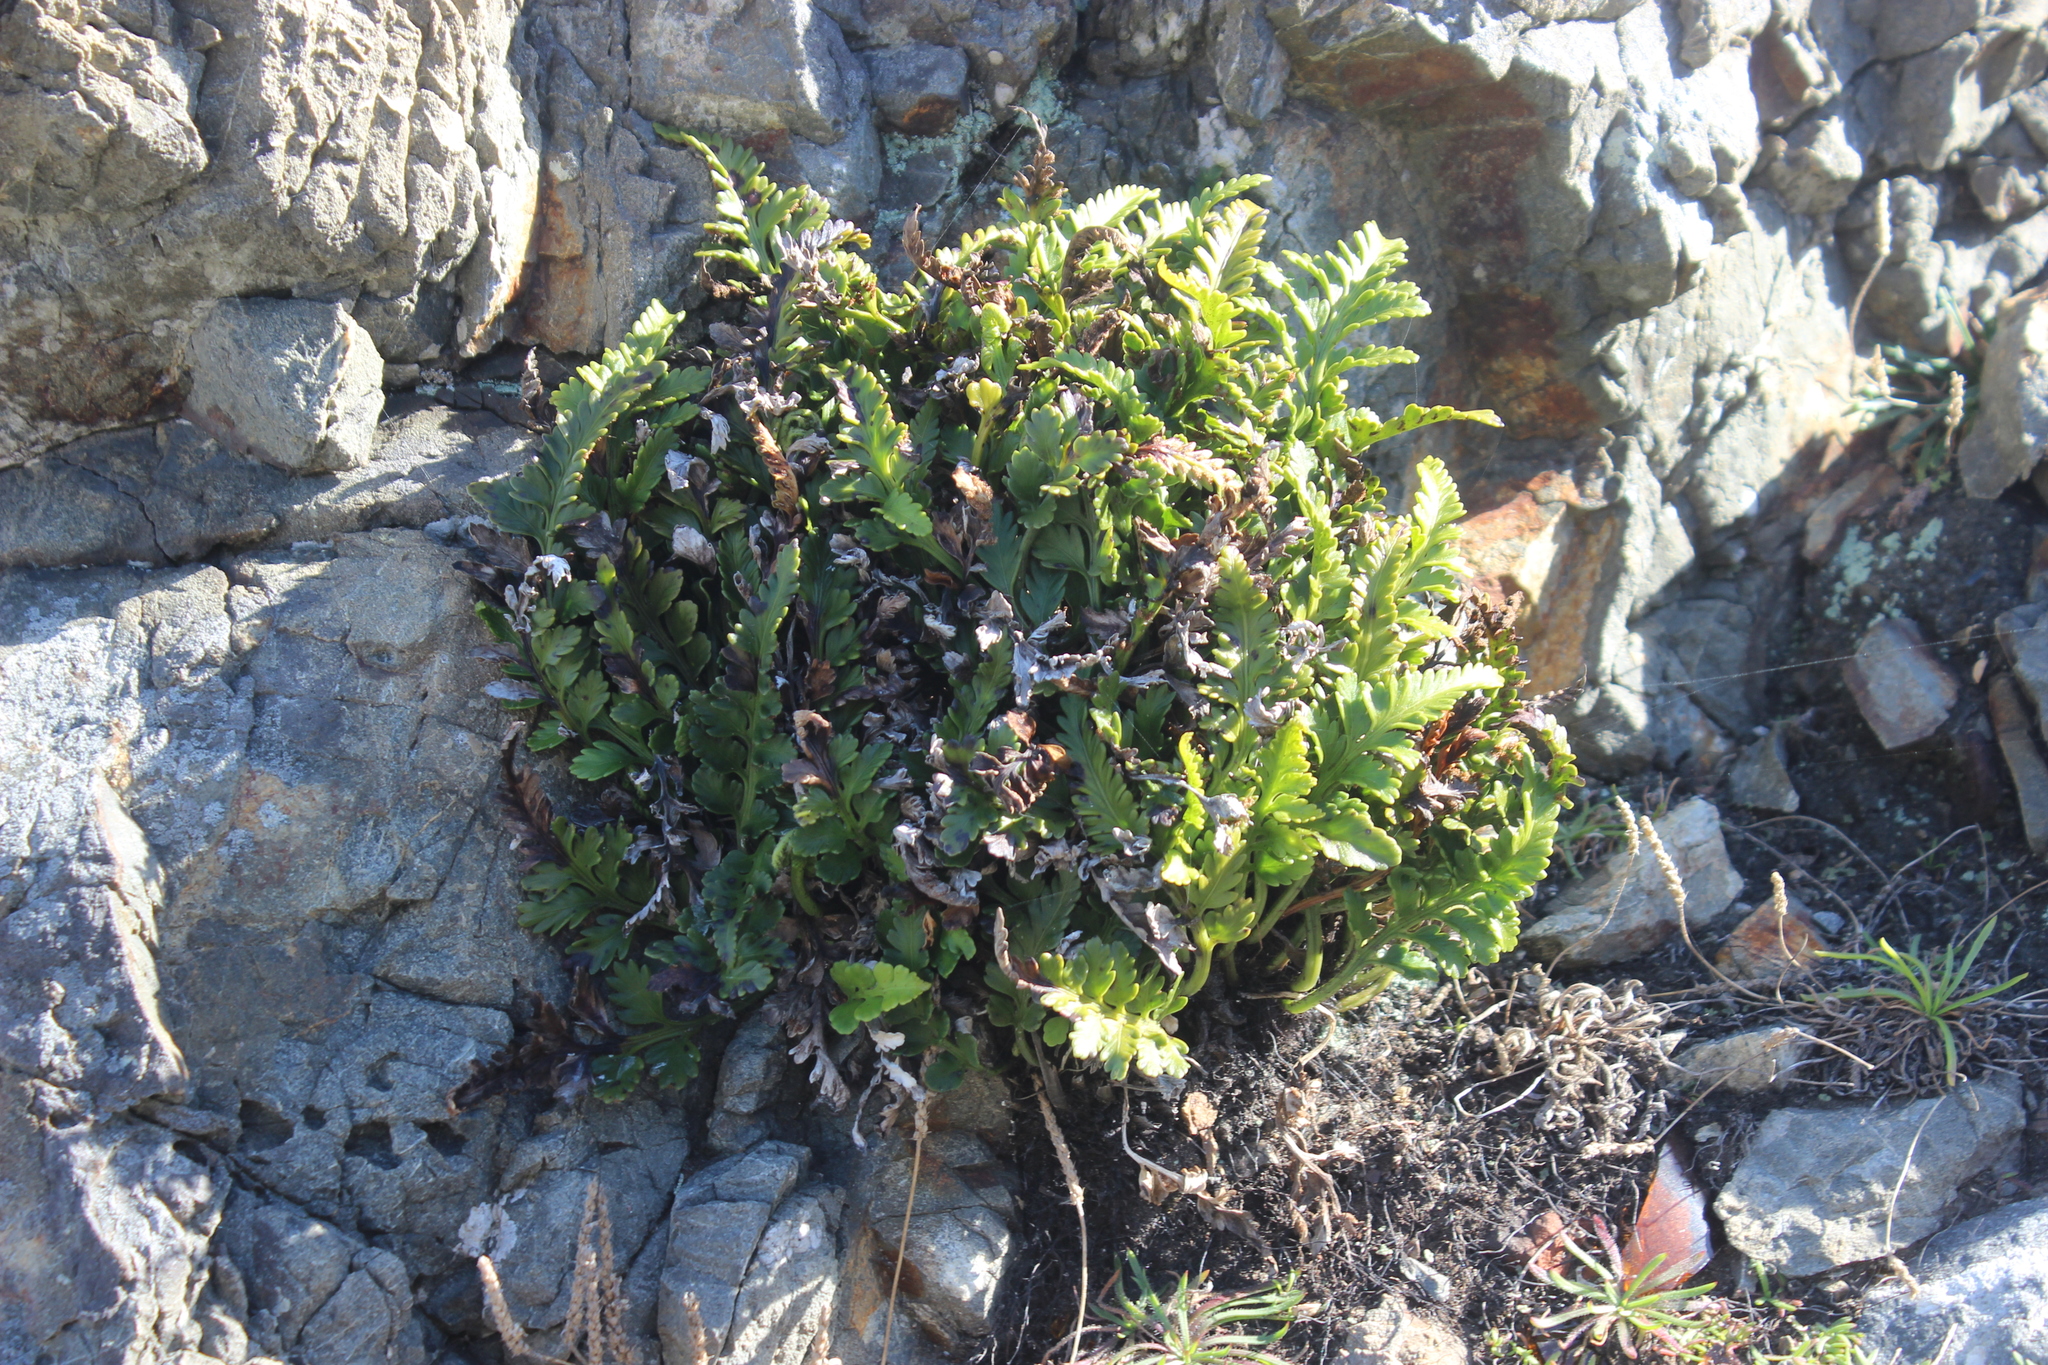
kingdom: Plantae
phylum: Tracheophyta
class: Polypodiopsida
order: Polypodiales
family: Aspleniaceae
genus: Asplenium
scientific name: Asplenium appendiculatum
